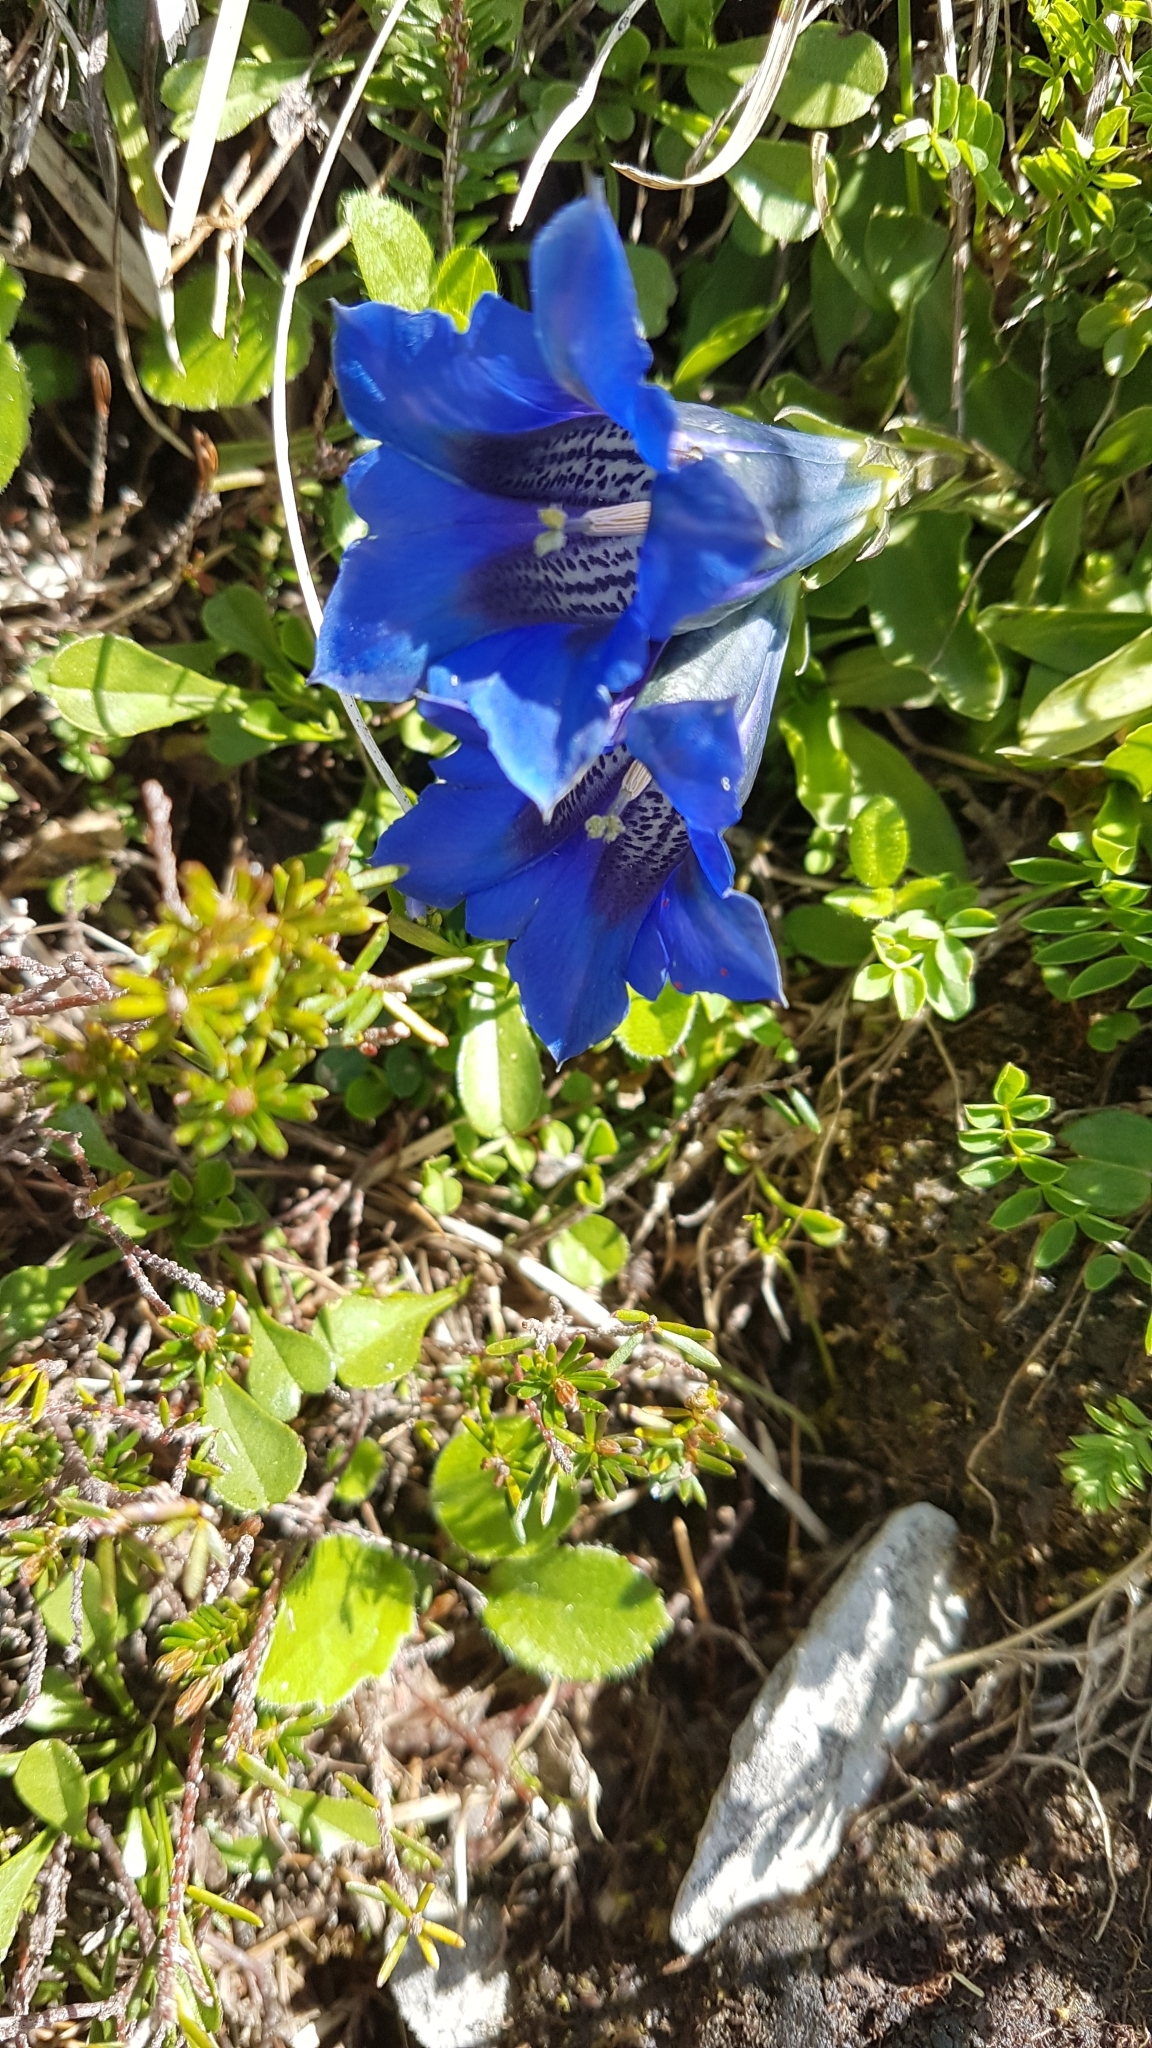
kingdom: Plantae
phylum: Tracheophyta
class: Magnoliopsida
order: Gentianales
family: Gentianaceae
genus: Gentiana
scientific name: Gentiana clusii
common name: Trumpet gentian
